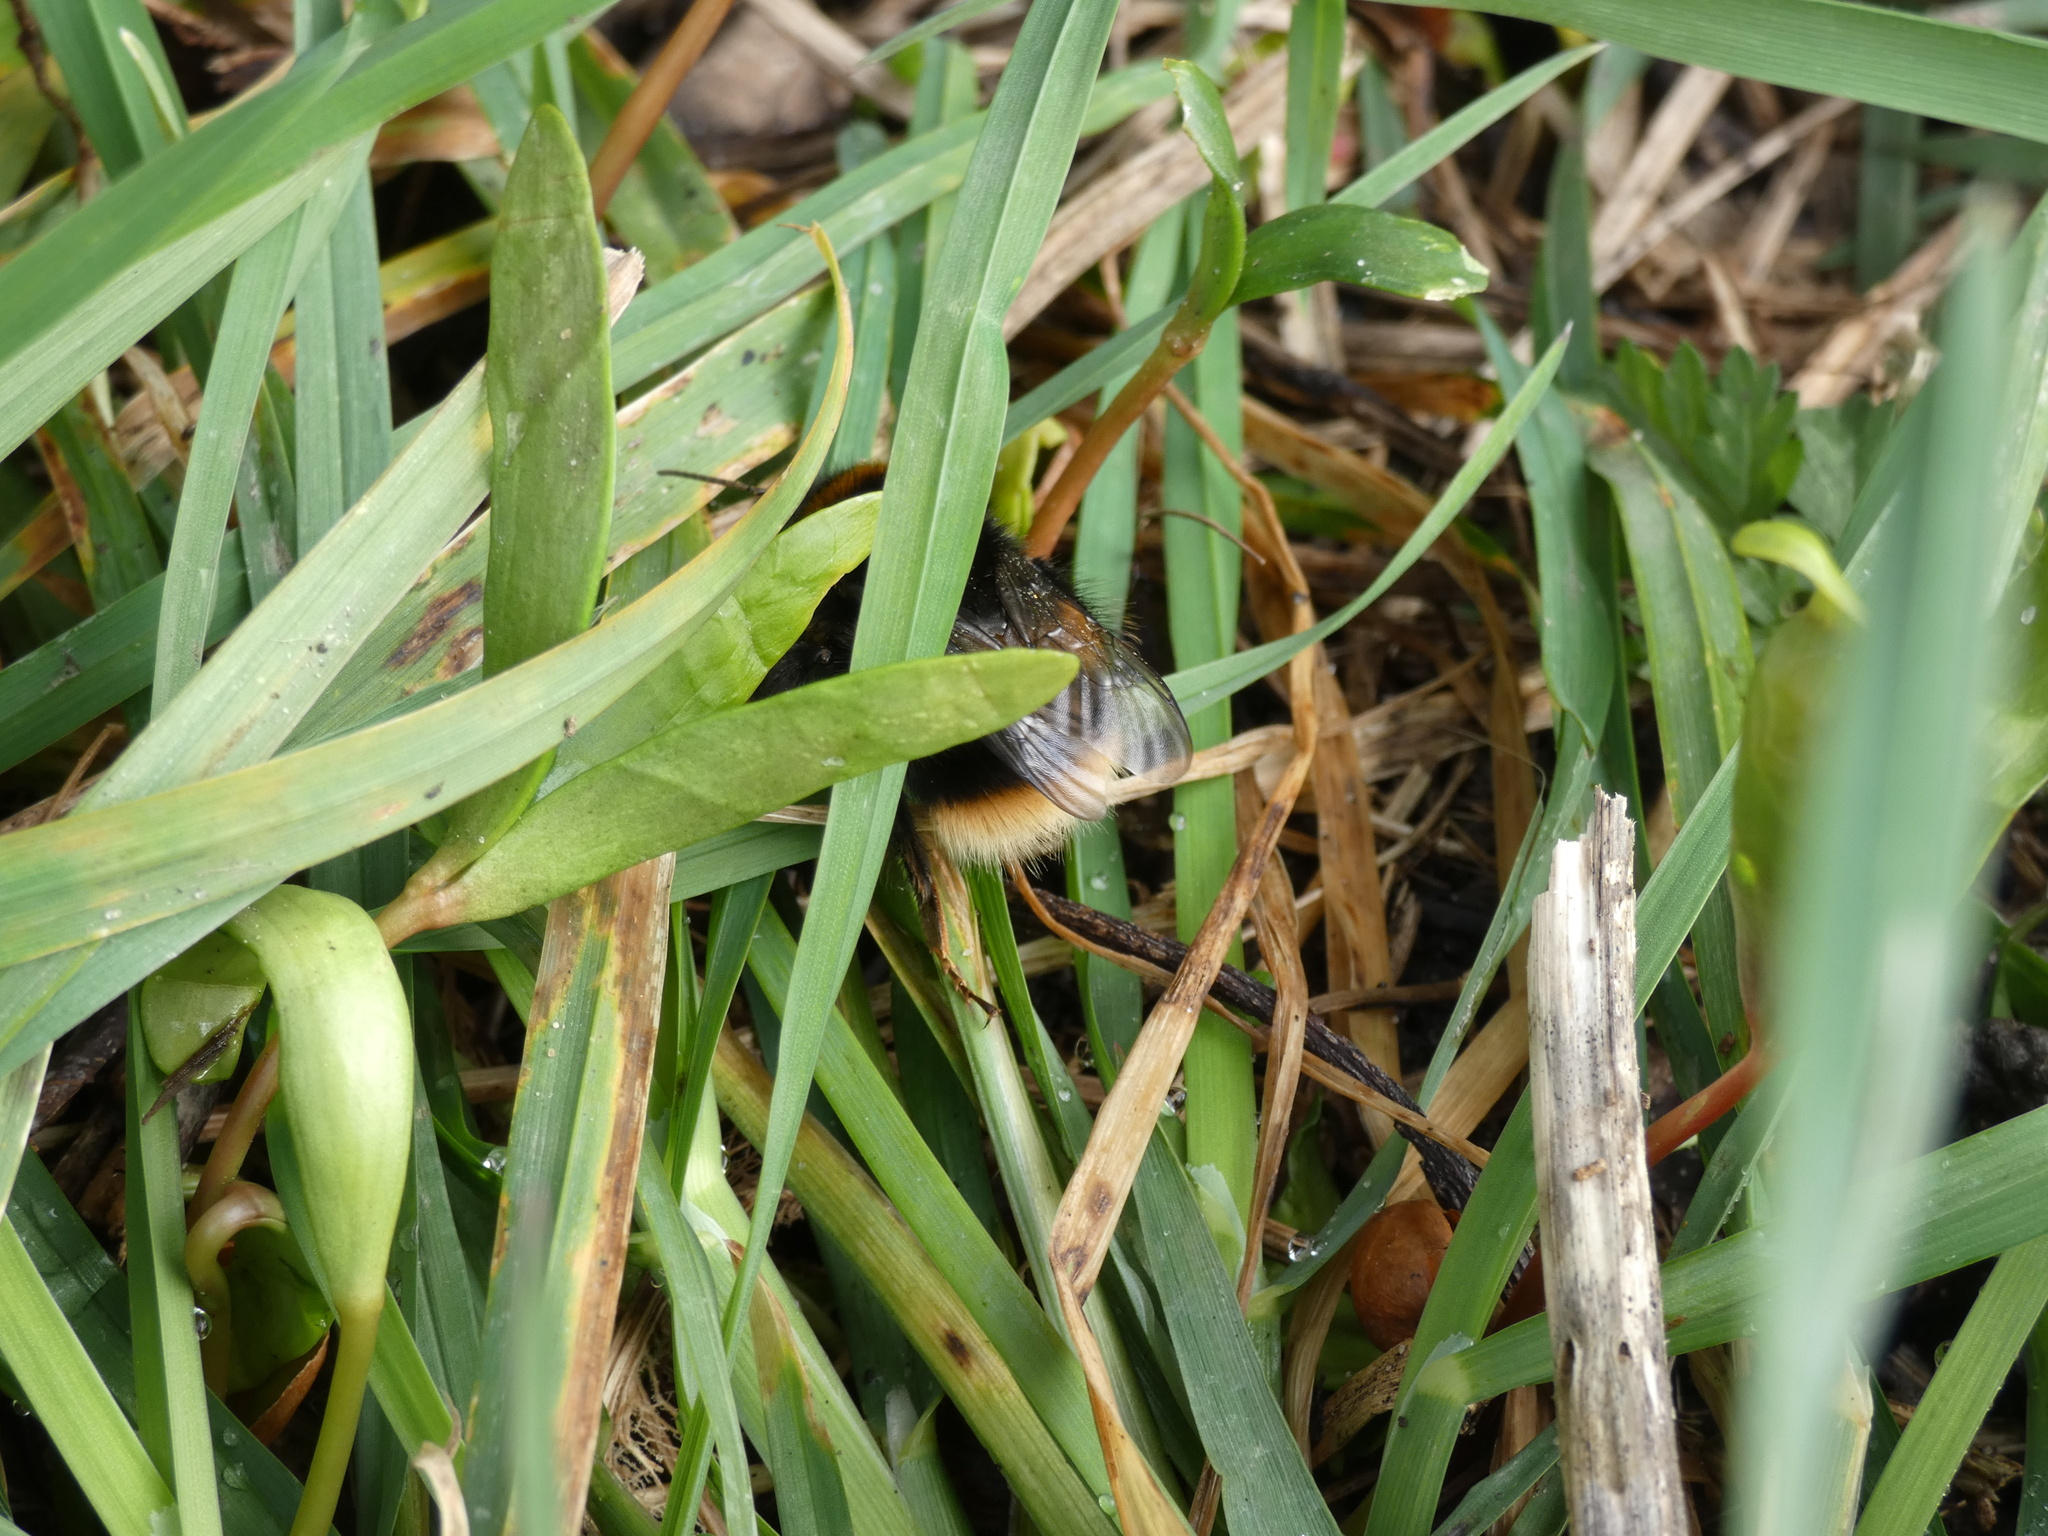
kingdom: Animalia
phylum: Arthropoda
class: Insecta
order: Hymenoptera
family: Apidae
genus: Bombus
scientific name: Bombus terrestris
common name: Buff-tailed bumblebee
